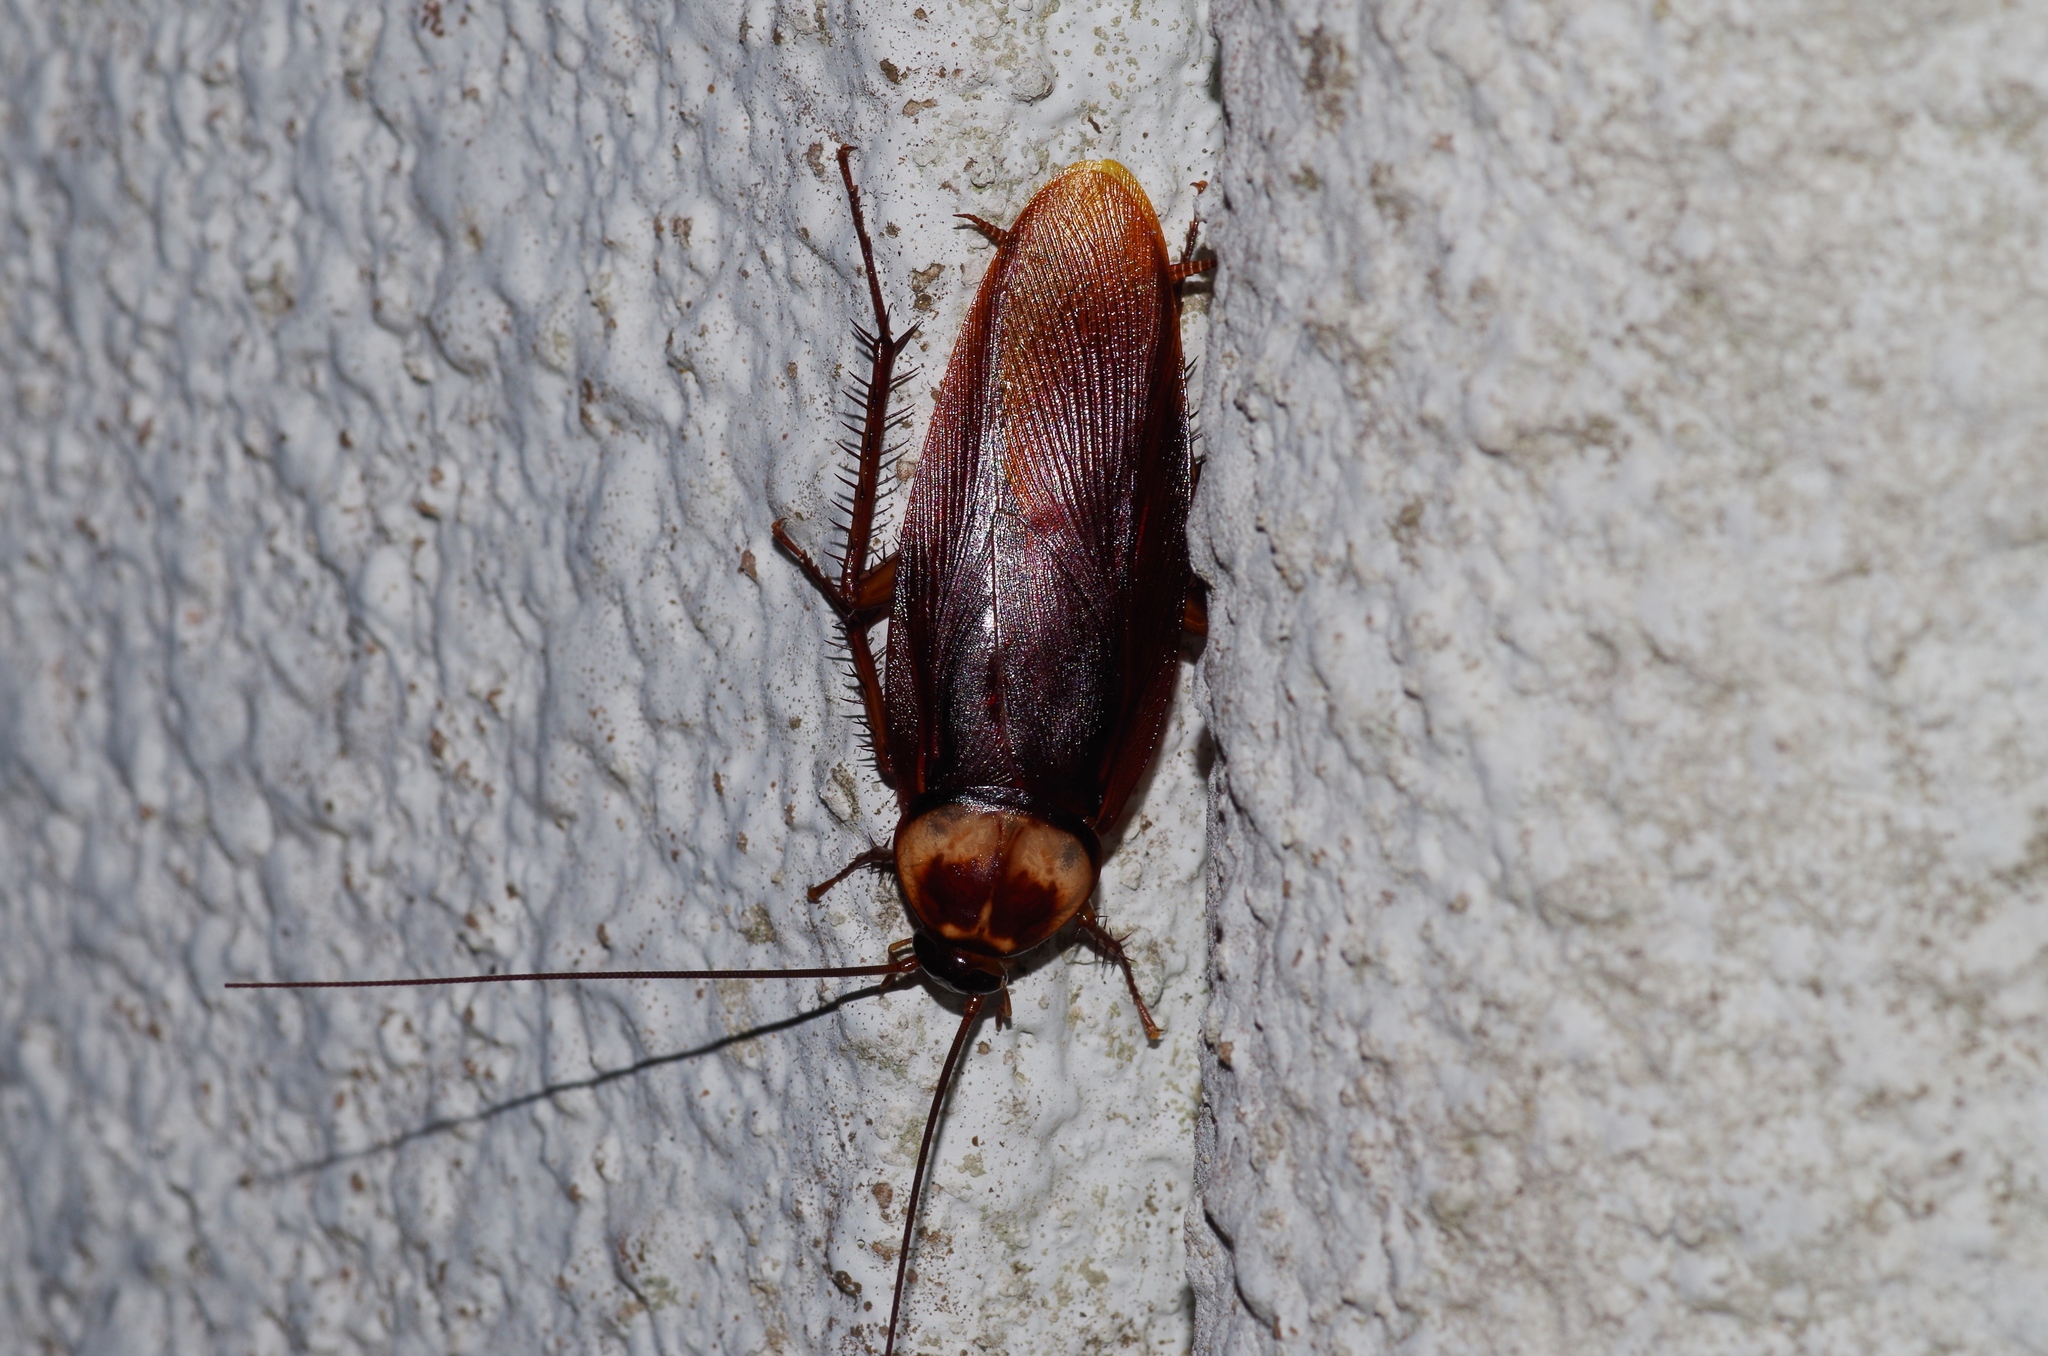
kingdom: Animalia
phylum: Arthropoda
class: Insecta
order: Blattodea
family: Blattidae
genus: Periplaneta
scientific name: Periplaneta americana
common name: American cockroach
